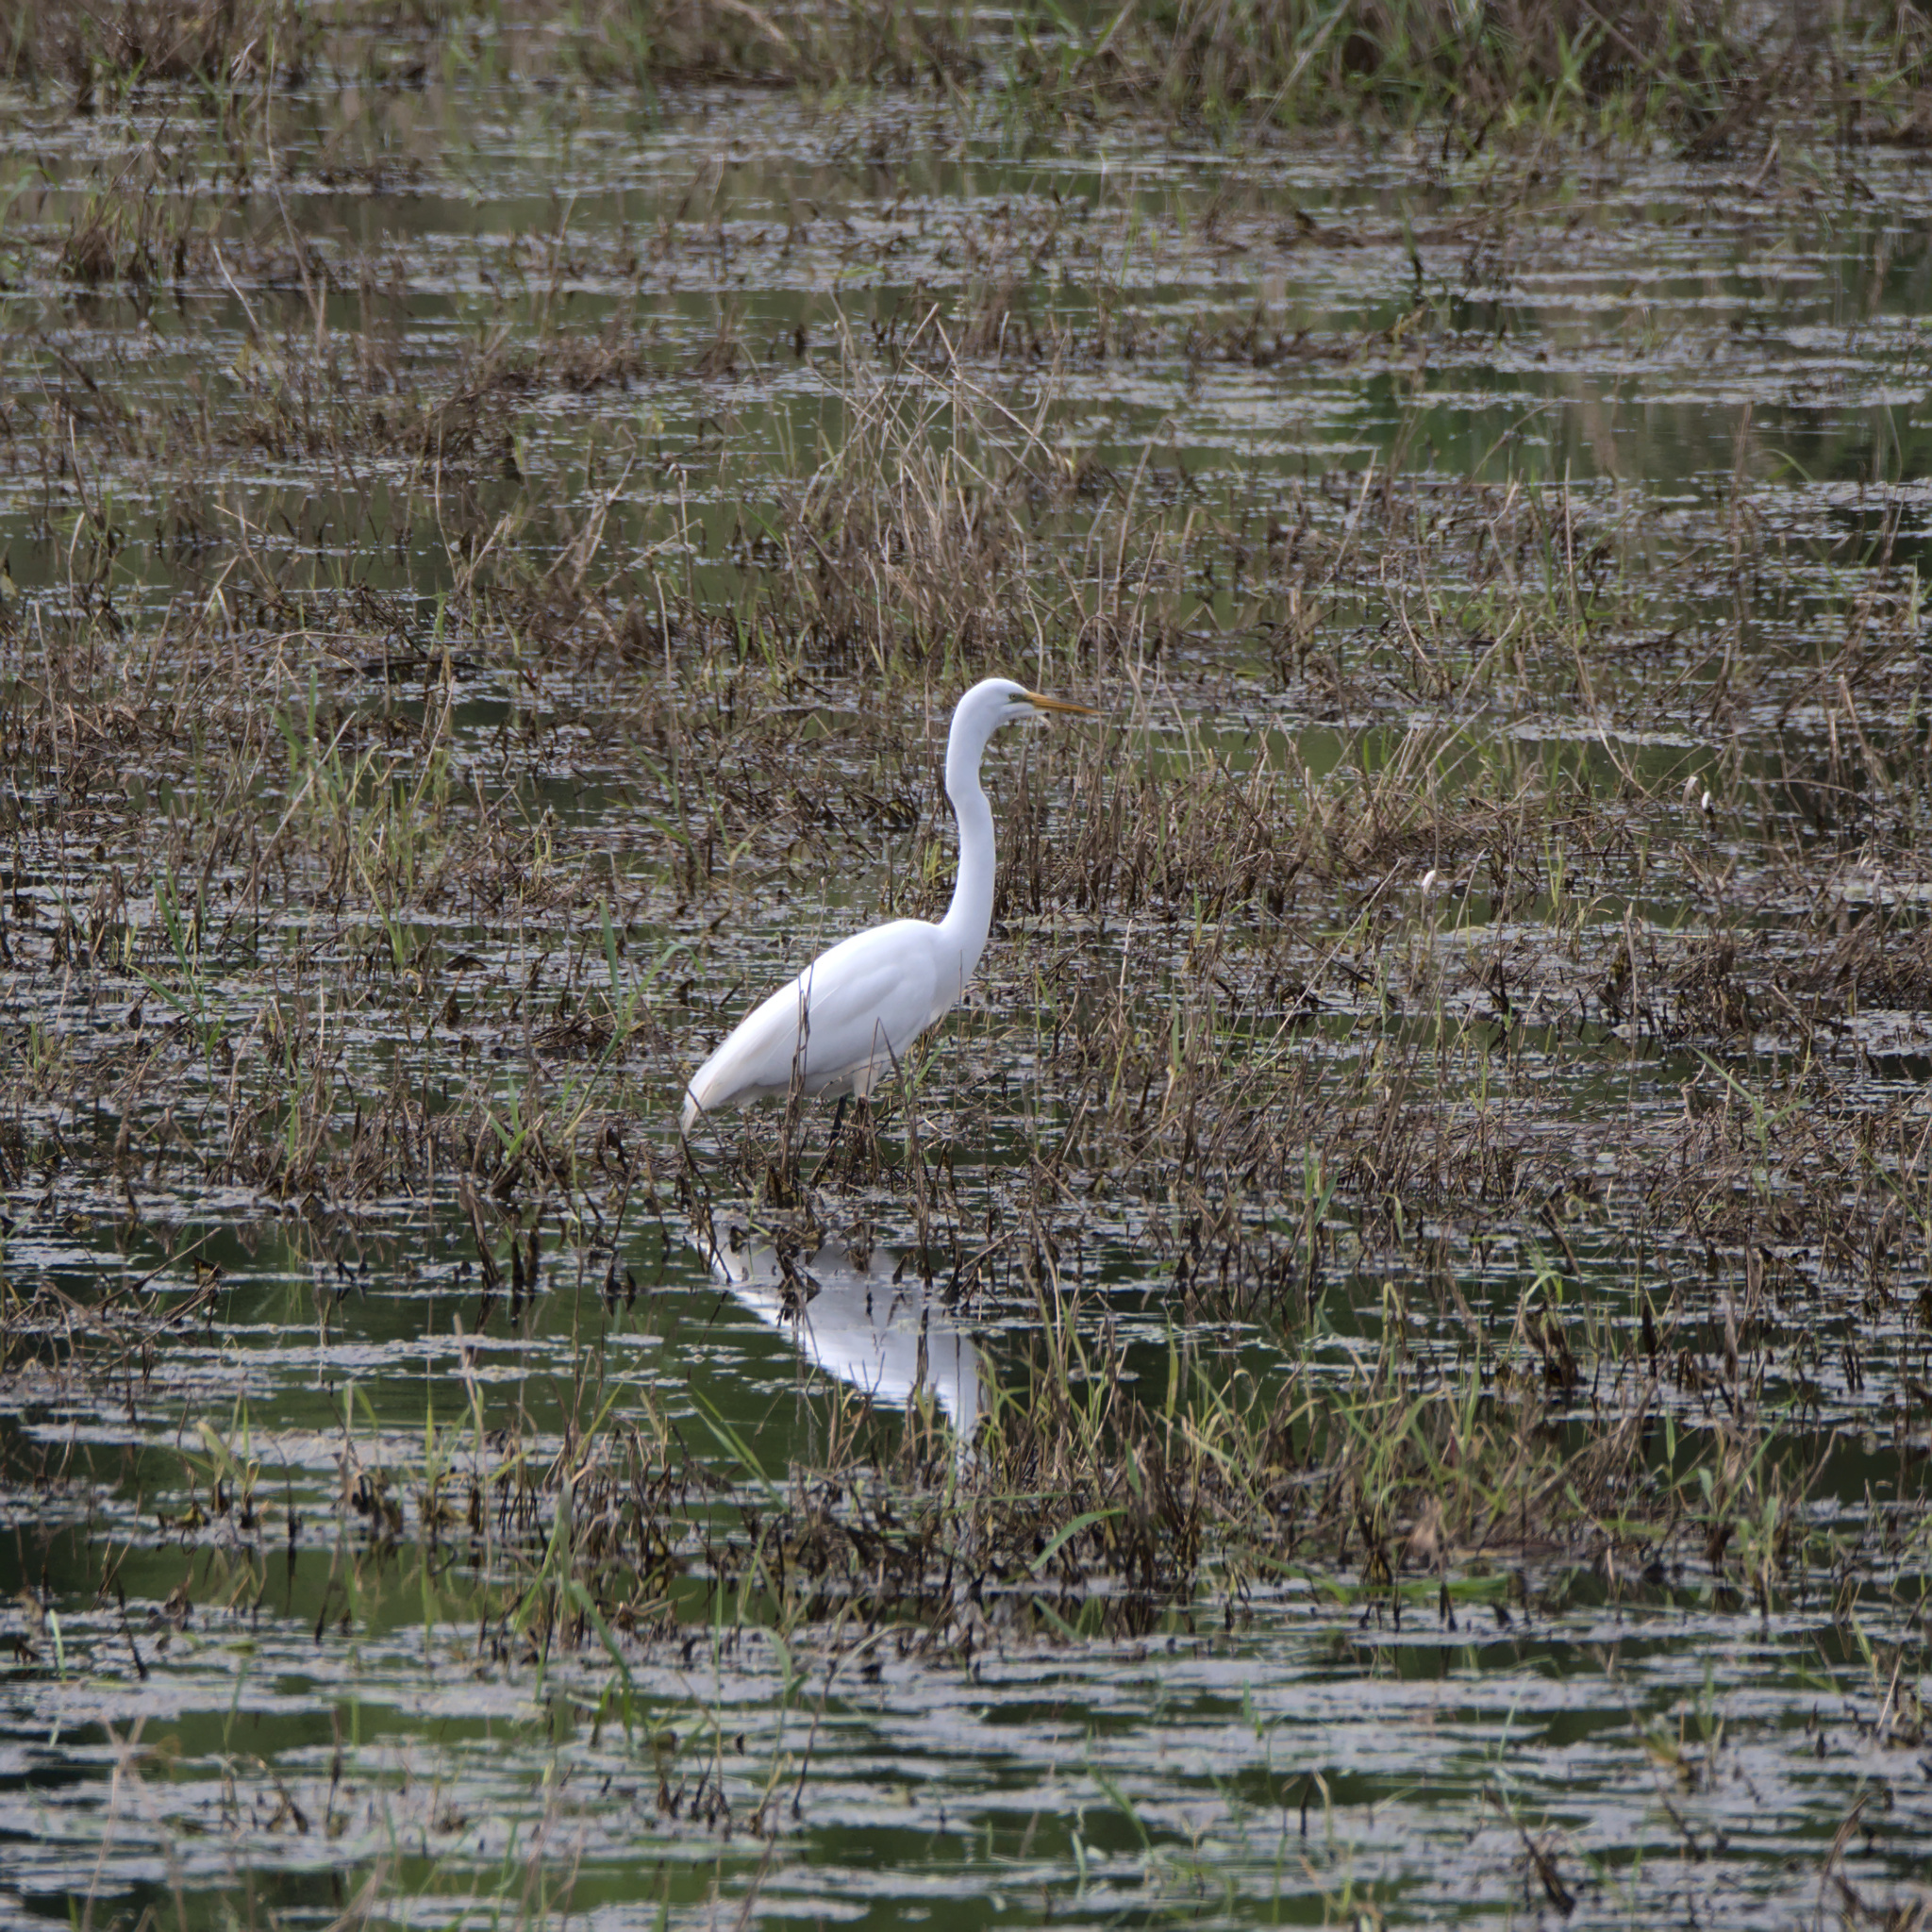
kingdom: Animalia
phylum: Chordata
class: Aves
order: Pelecaniformes
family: Ardeidae
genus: Ardea
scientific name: Ardea alba
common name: Great egret
